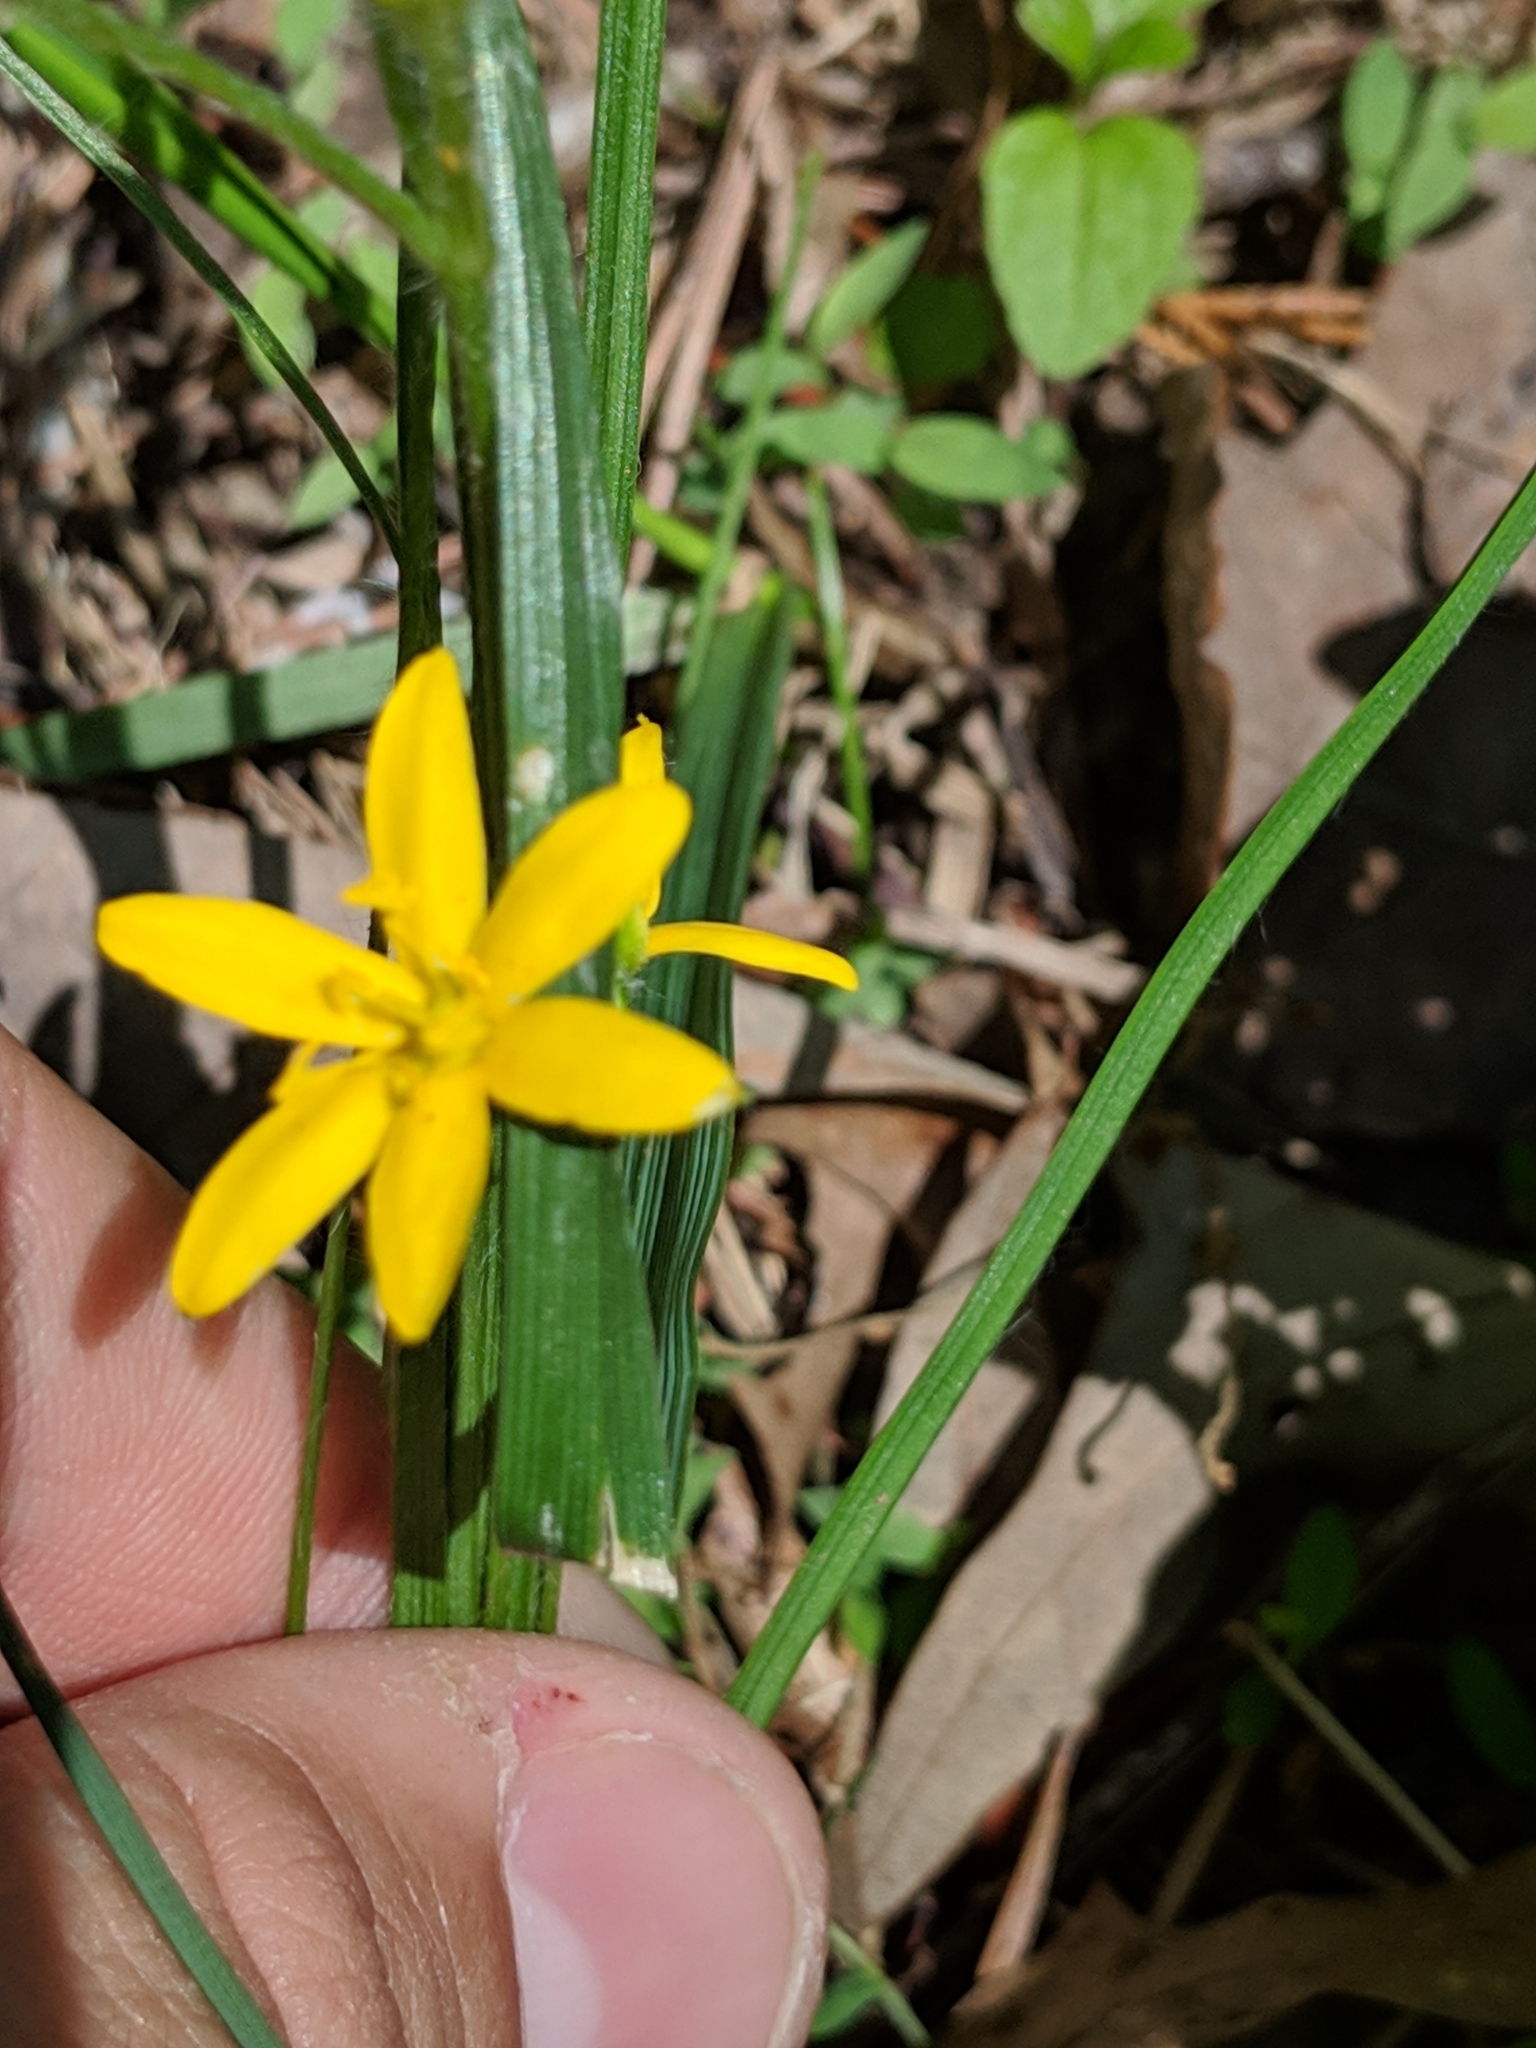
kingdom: Plantae
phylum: Tracheophyta
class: Liliopsida
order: Asparagales
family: Hypoxidaceae
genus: Hypoxis
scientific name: Hypoxis hirsuta
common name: Common goldstar
